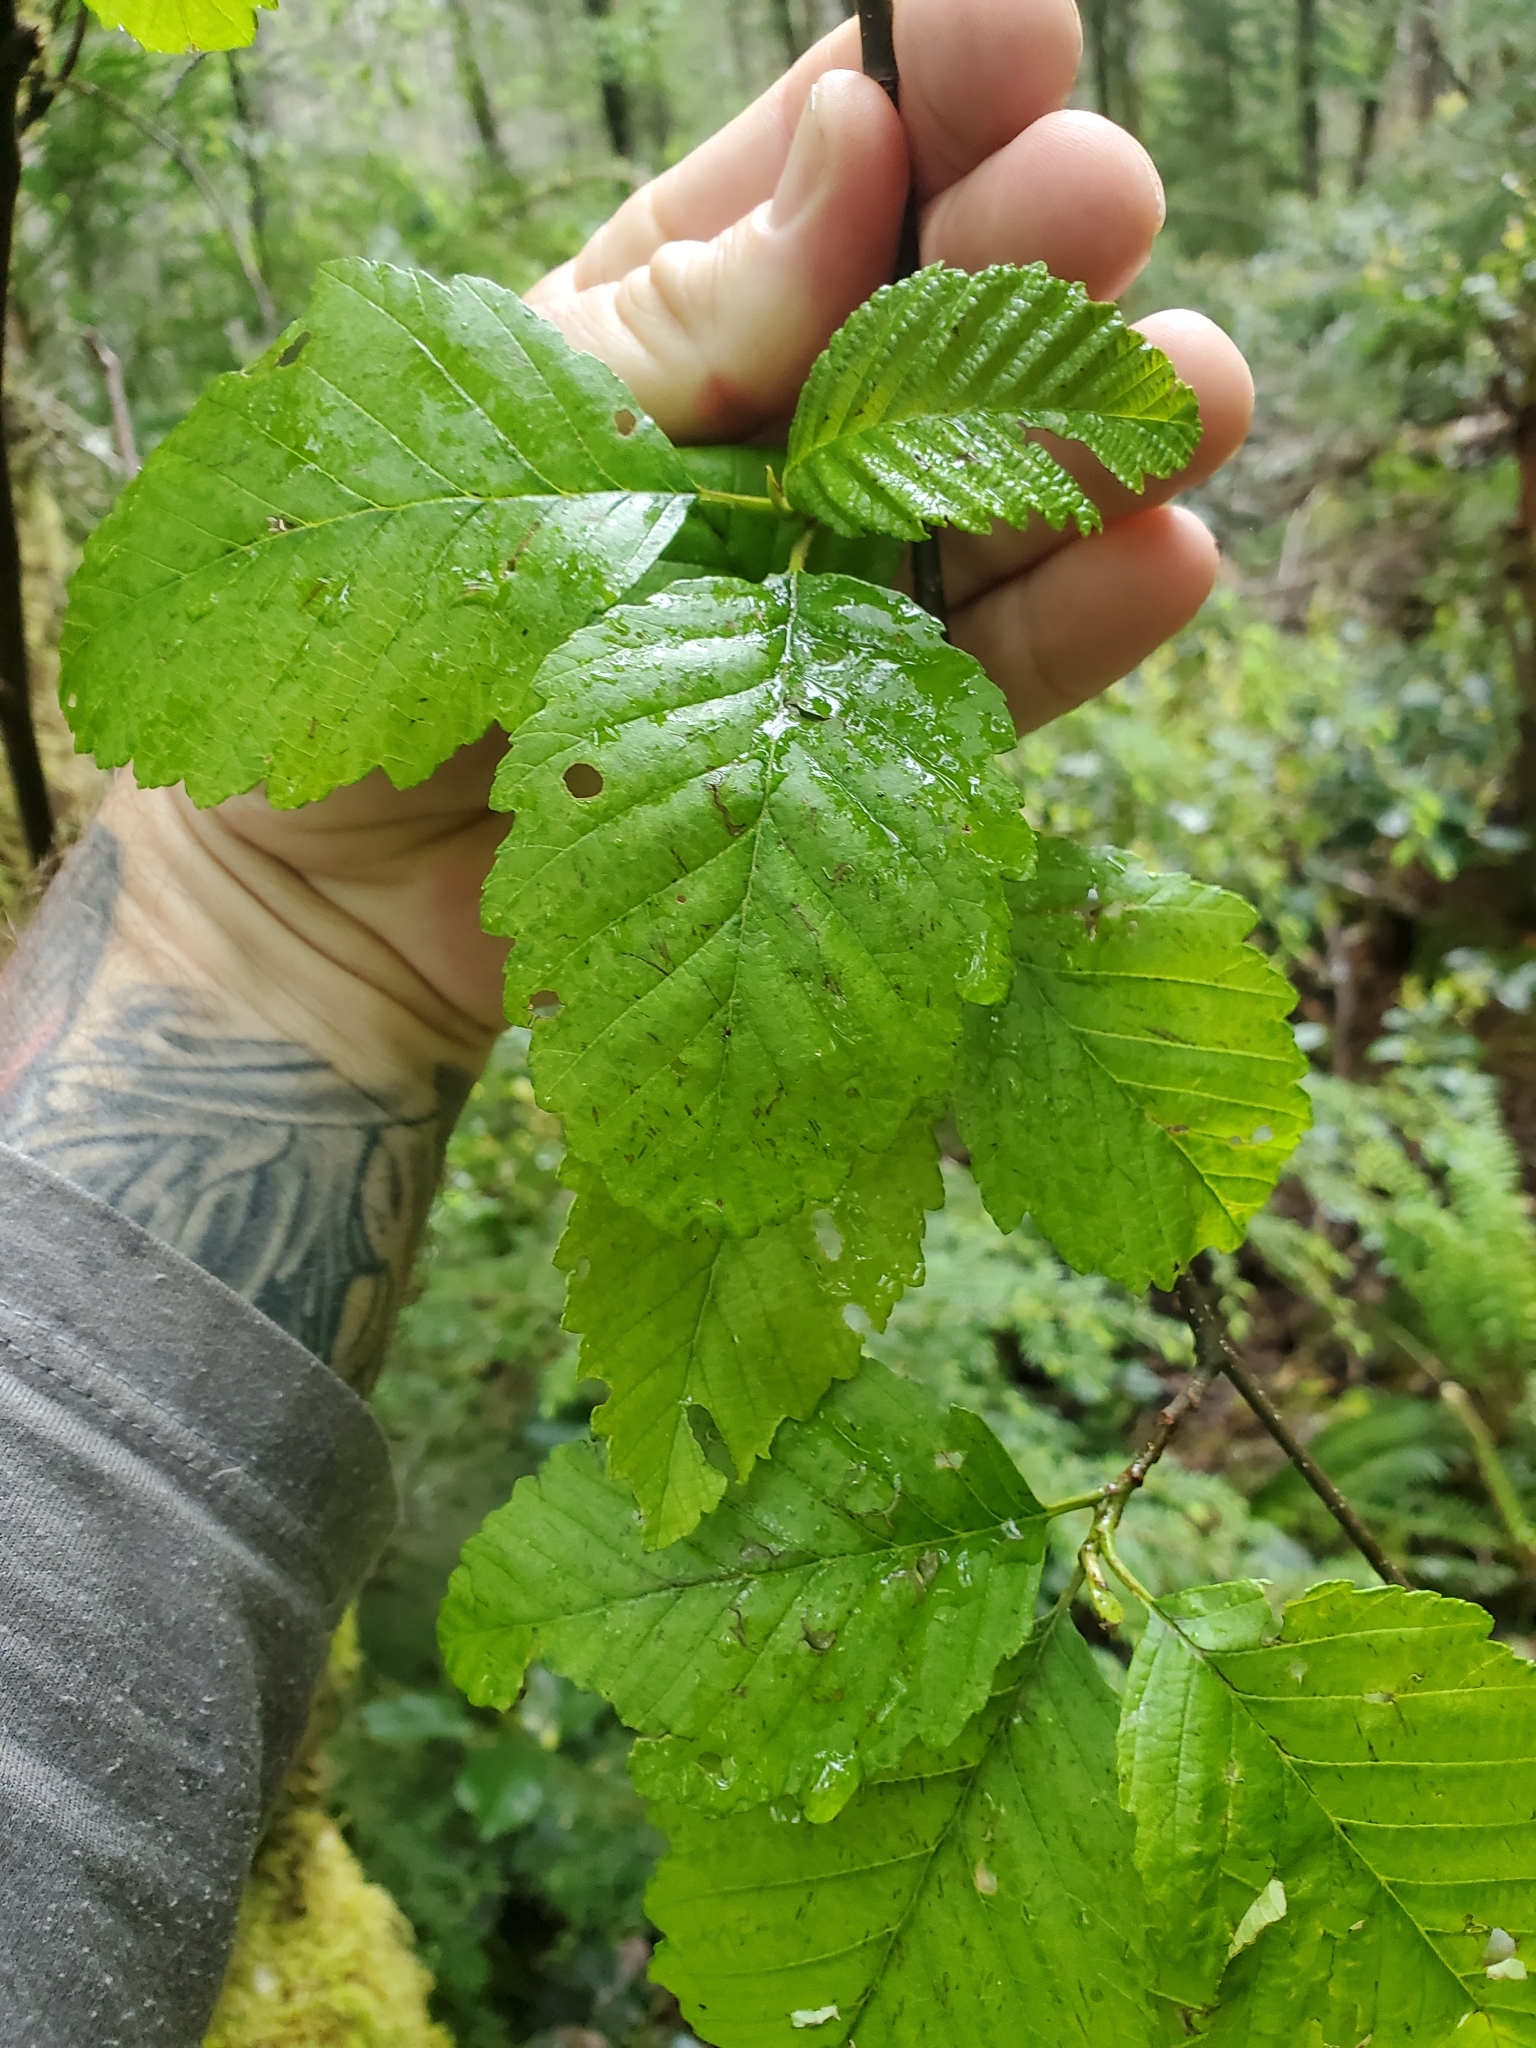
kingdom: Plantae
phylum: Tracheophyta
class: Magnoliopsida
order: Fagales
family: Betulaceae
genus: Alnus
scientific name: Alnus rubra
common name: Red alder
